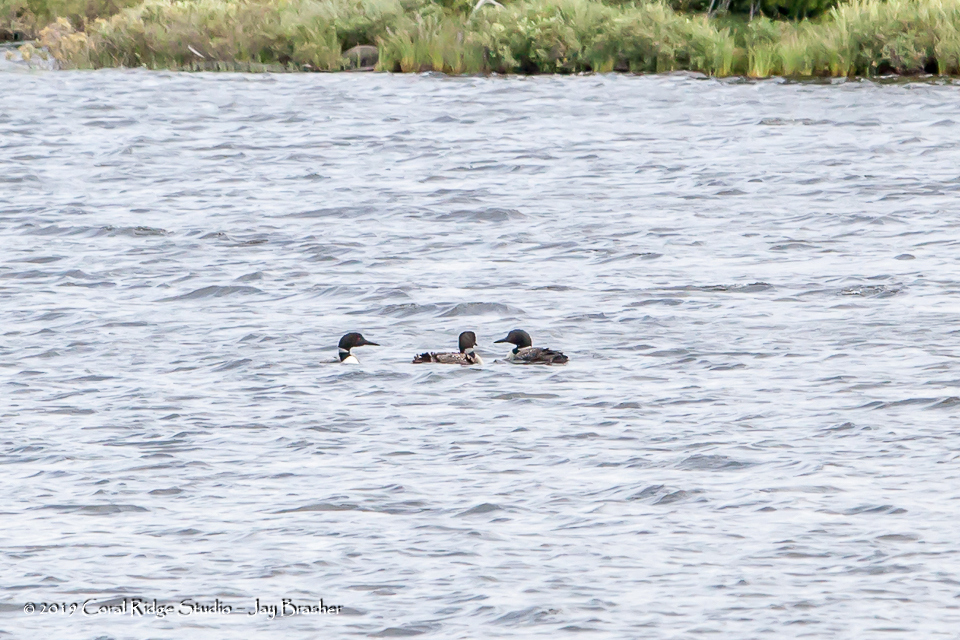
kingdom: Animalia
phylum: Chordata
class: Aves
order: Gaviiformes
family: Gaviidae
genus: Gavia
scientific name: Gavia immer
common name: Common loon
